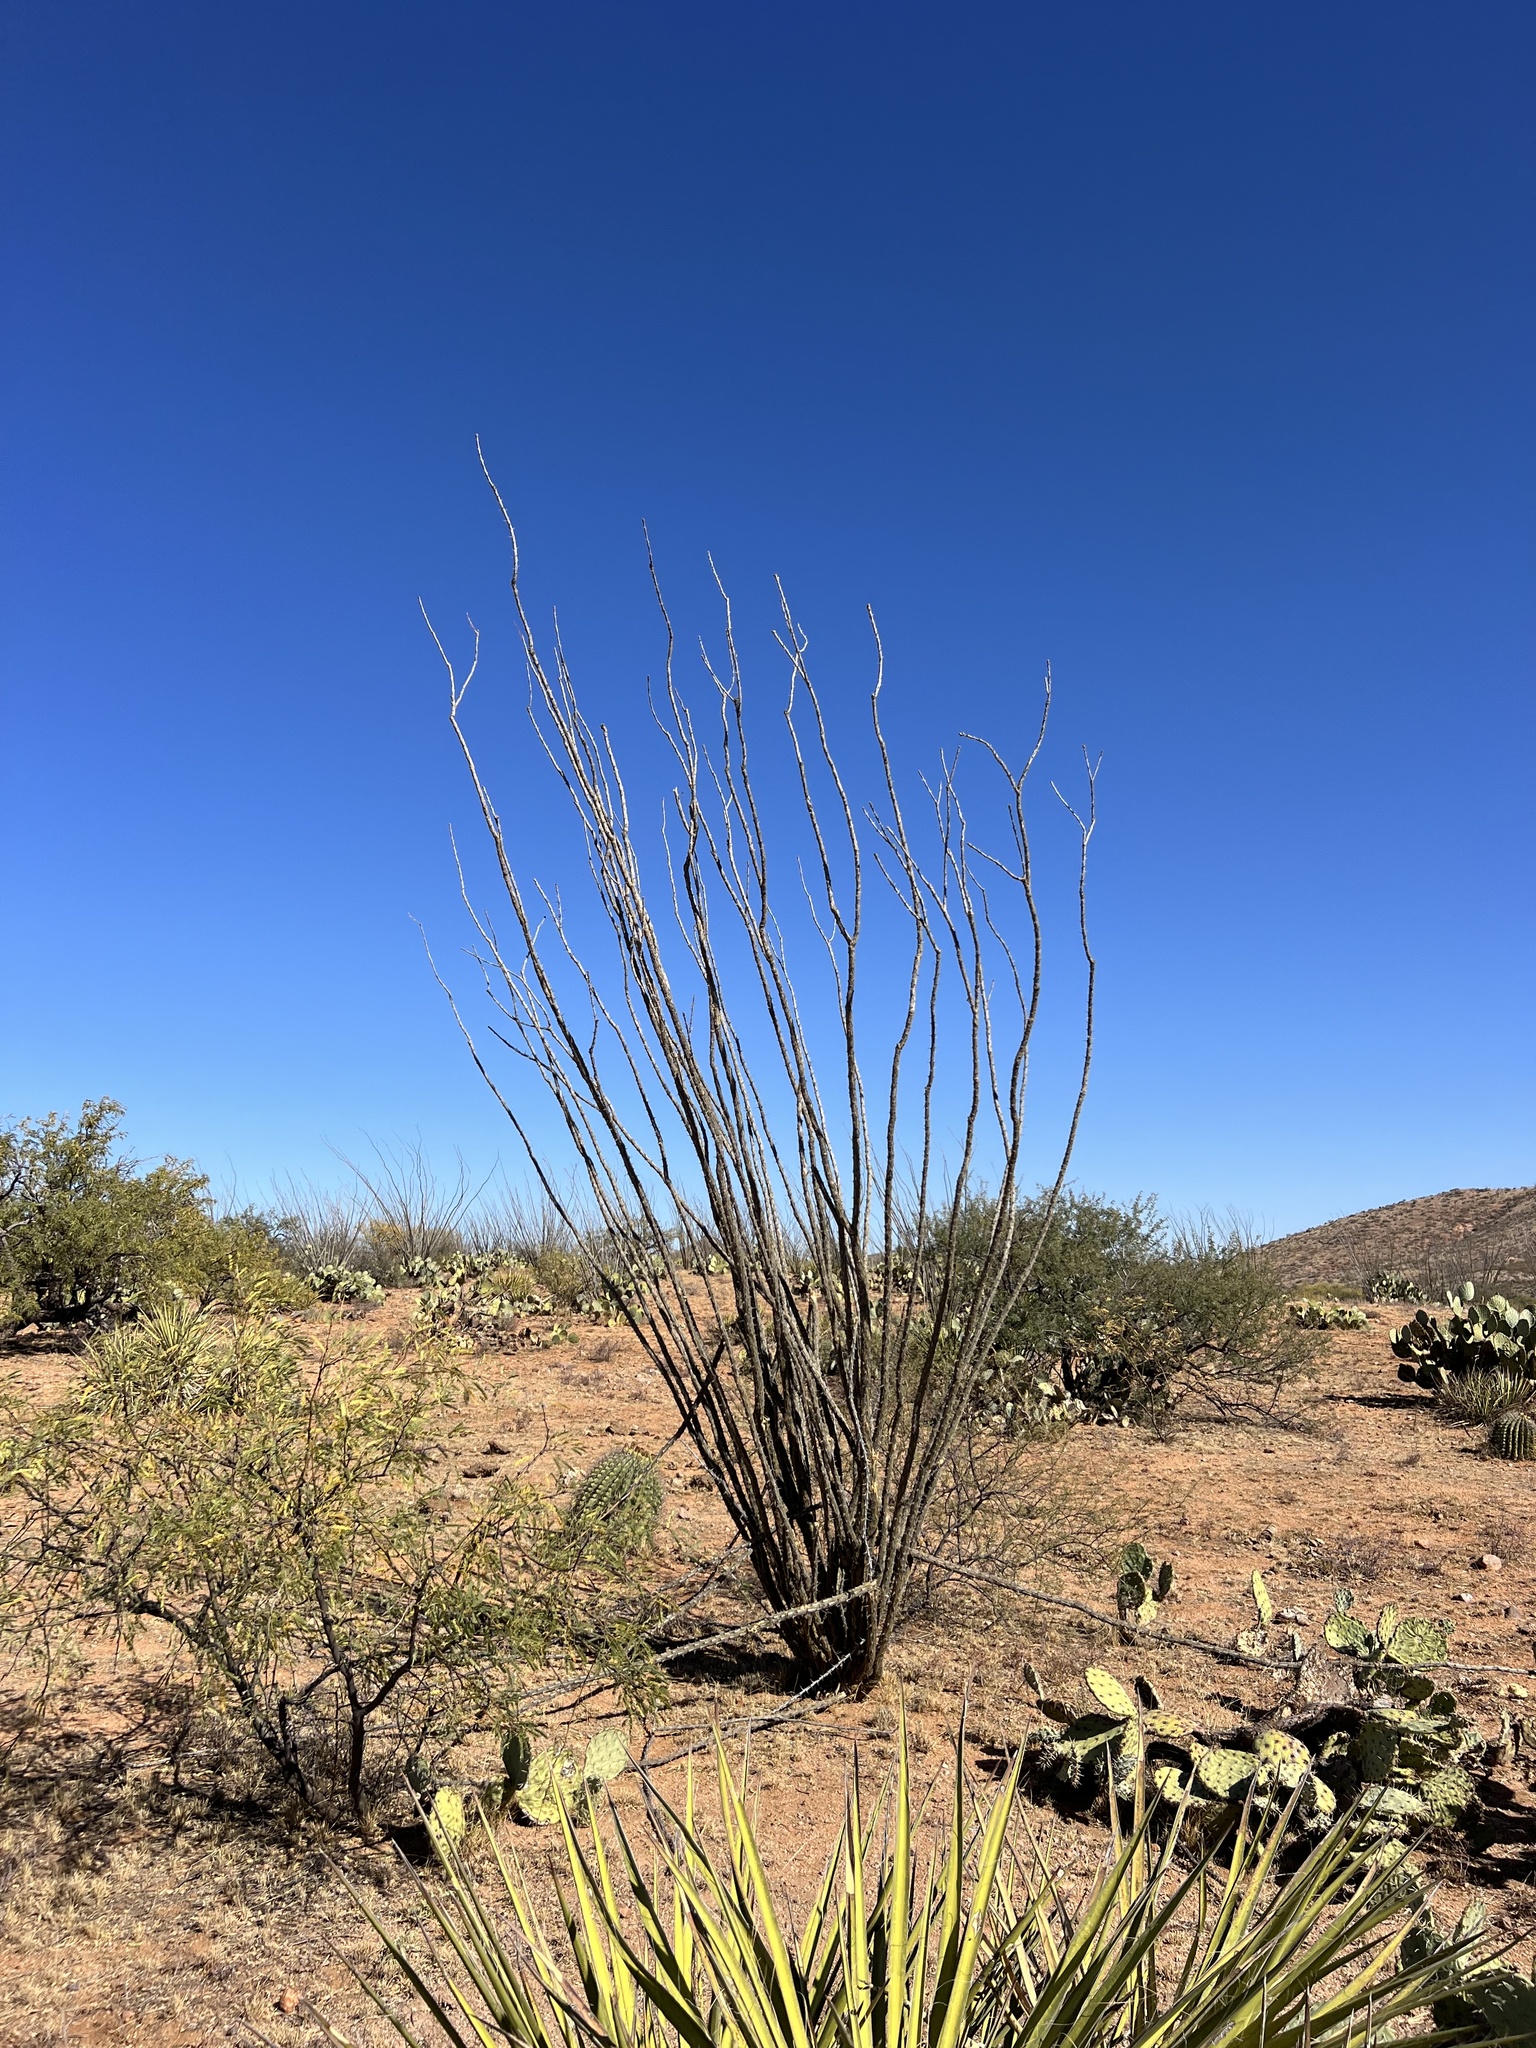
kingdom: Plantae
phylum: Tracheophyta
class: Magnoliopsida
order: Ericales
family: Fouquieriaceae
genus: Fouquieria
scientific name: Fouquieria splendens
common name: Vine-cactus
